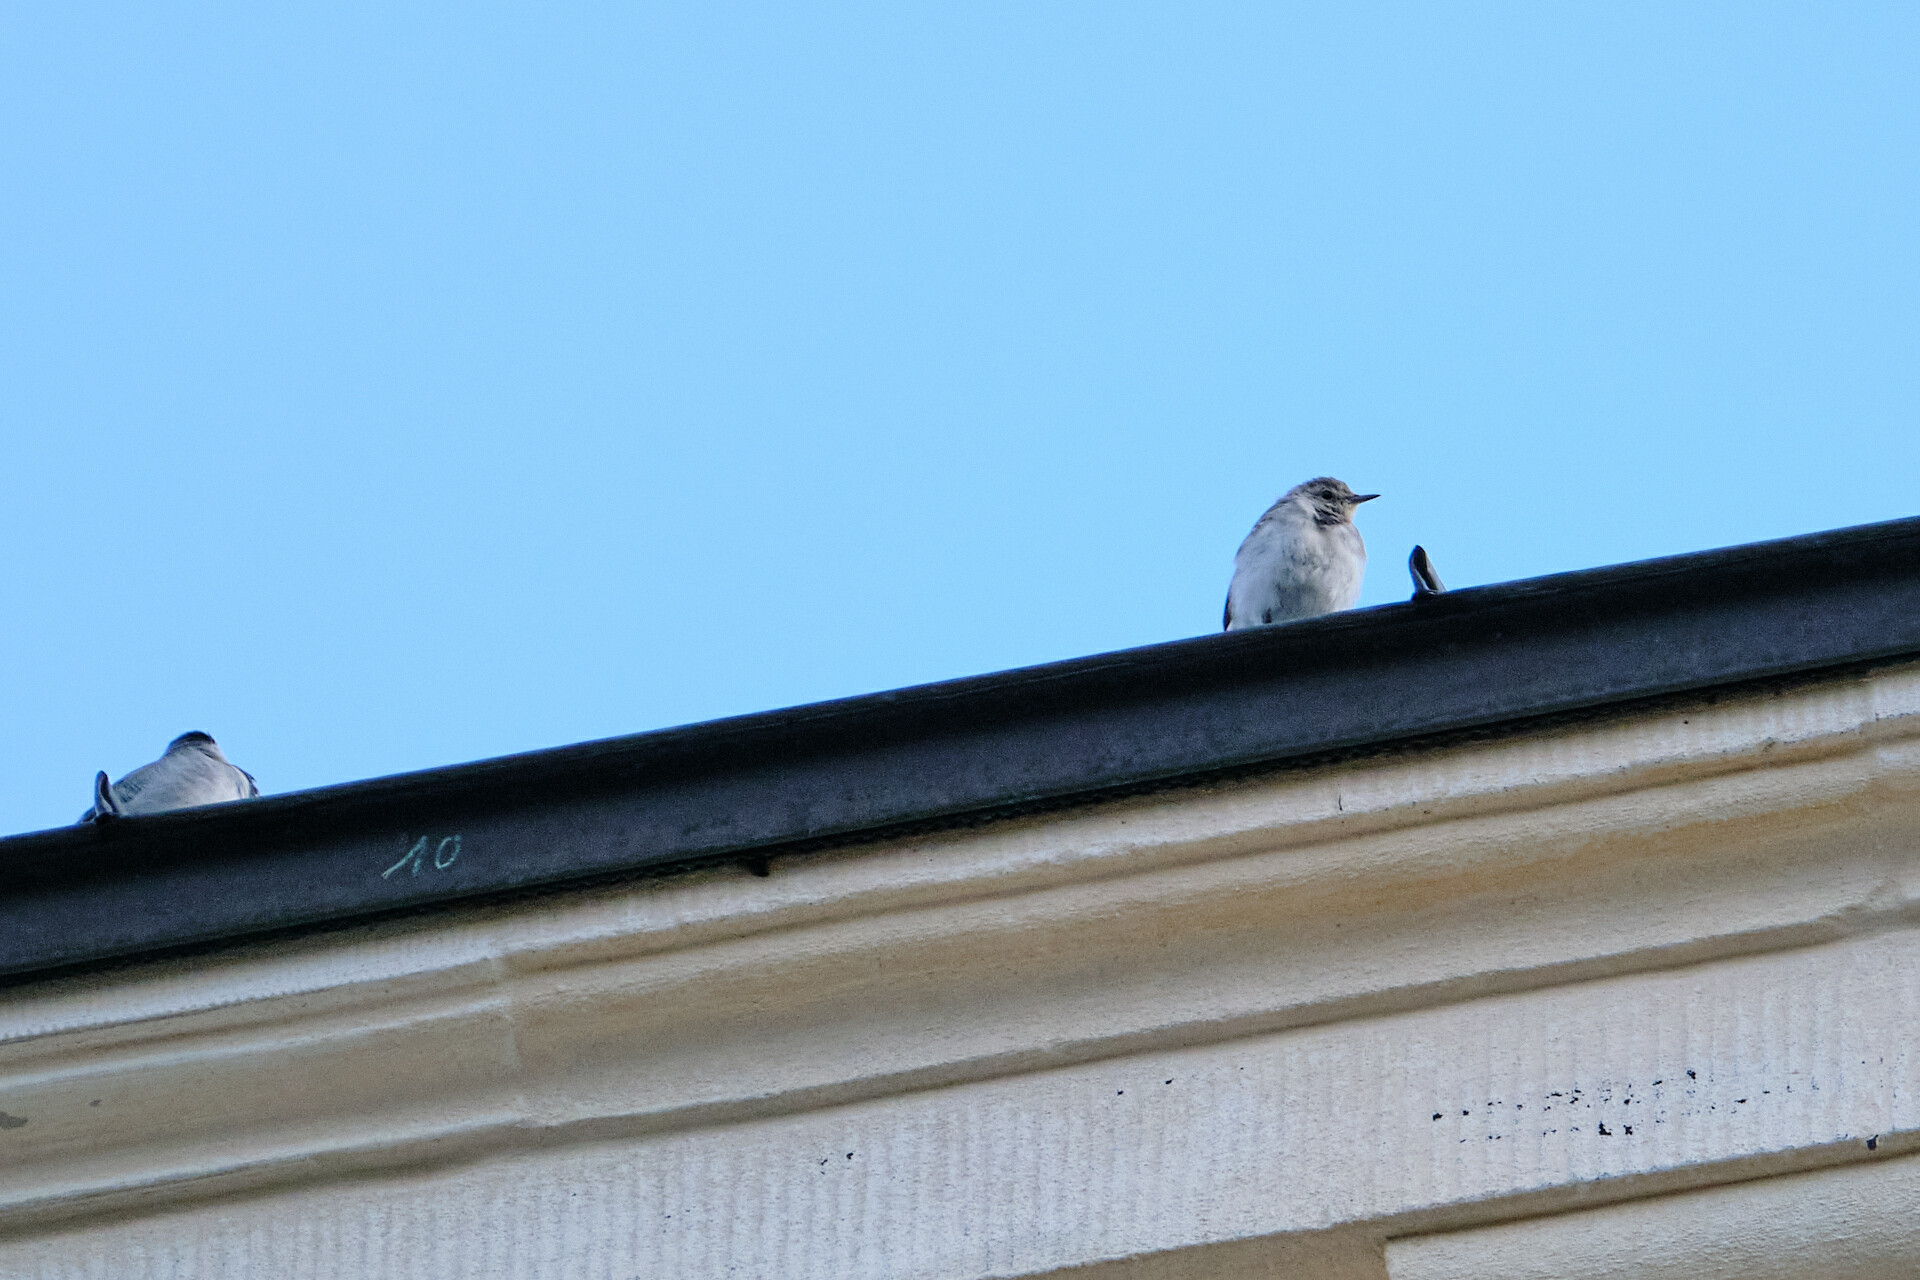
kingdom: Animalia
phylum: Chordata
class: Aves
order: Passeriformes
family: Motacillidae
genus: Motacilla
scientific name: Motacilla alba
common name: White wagtail
